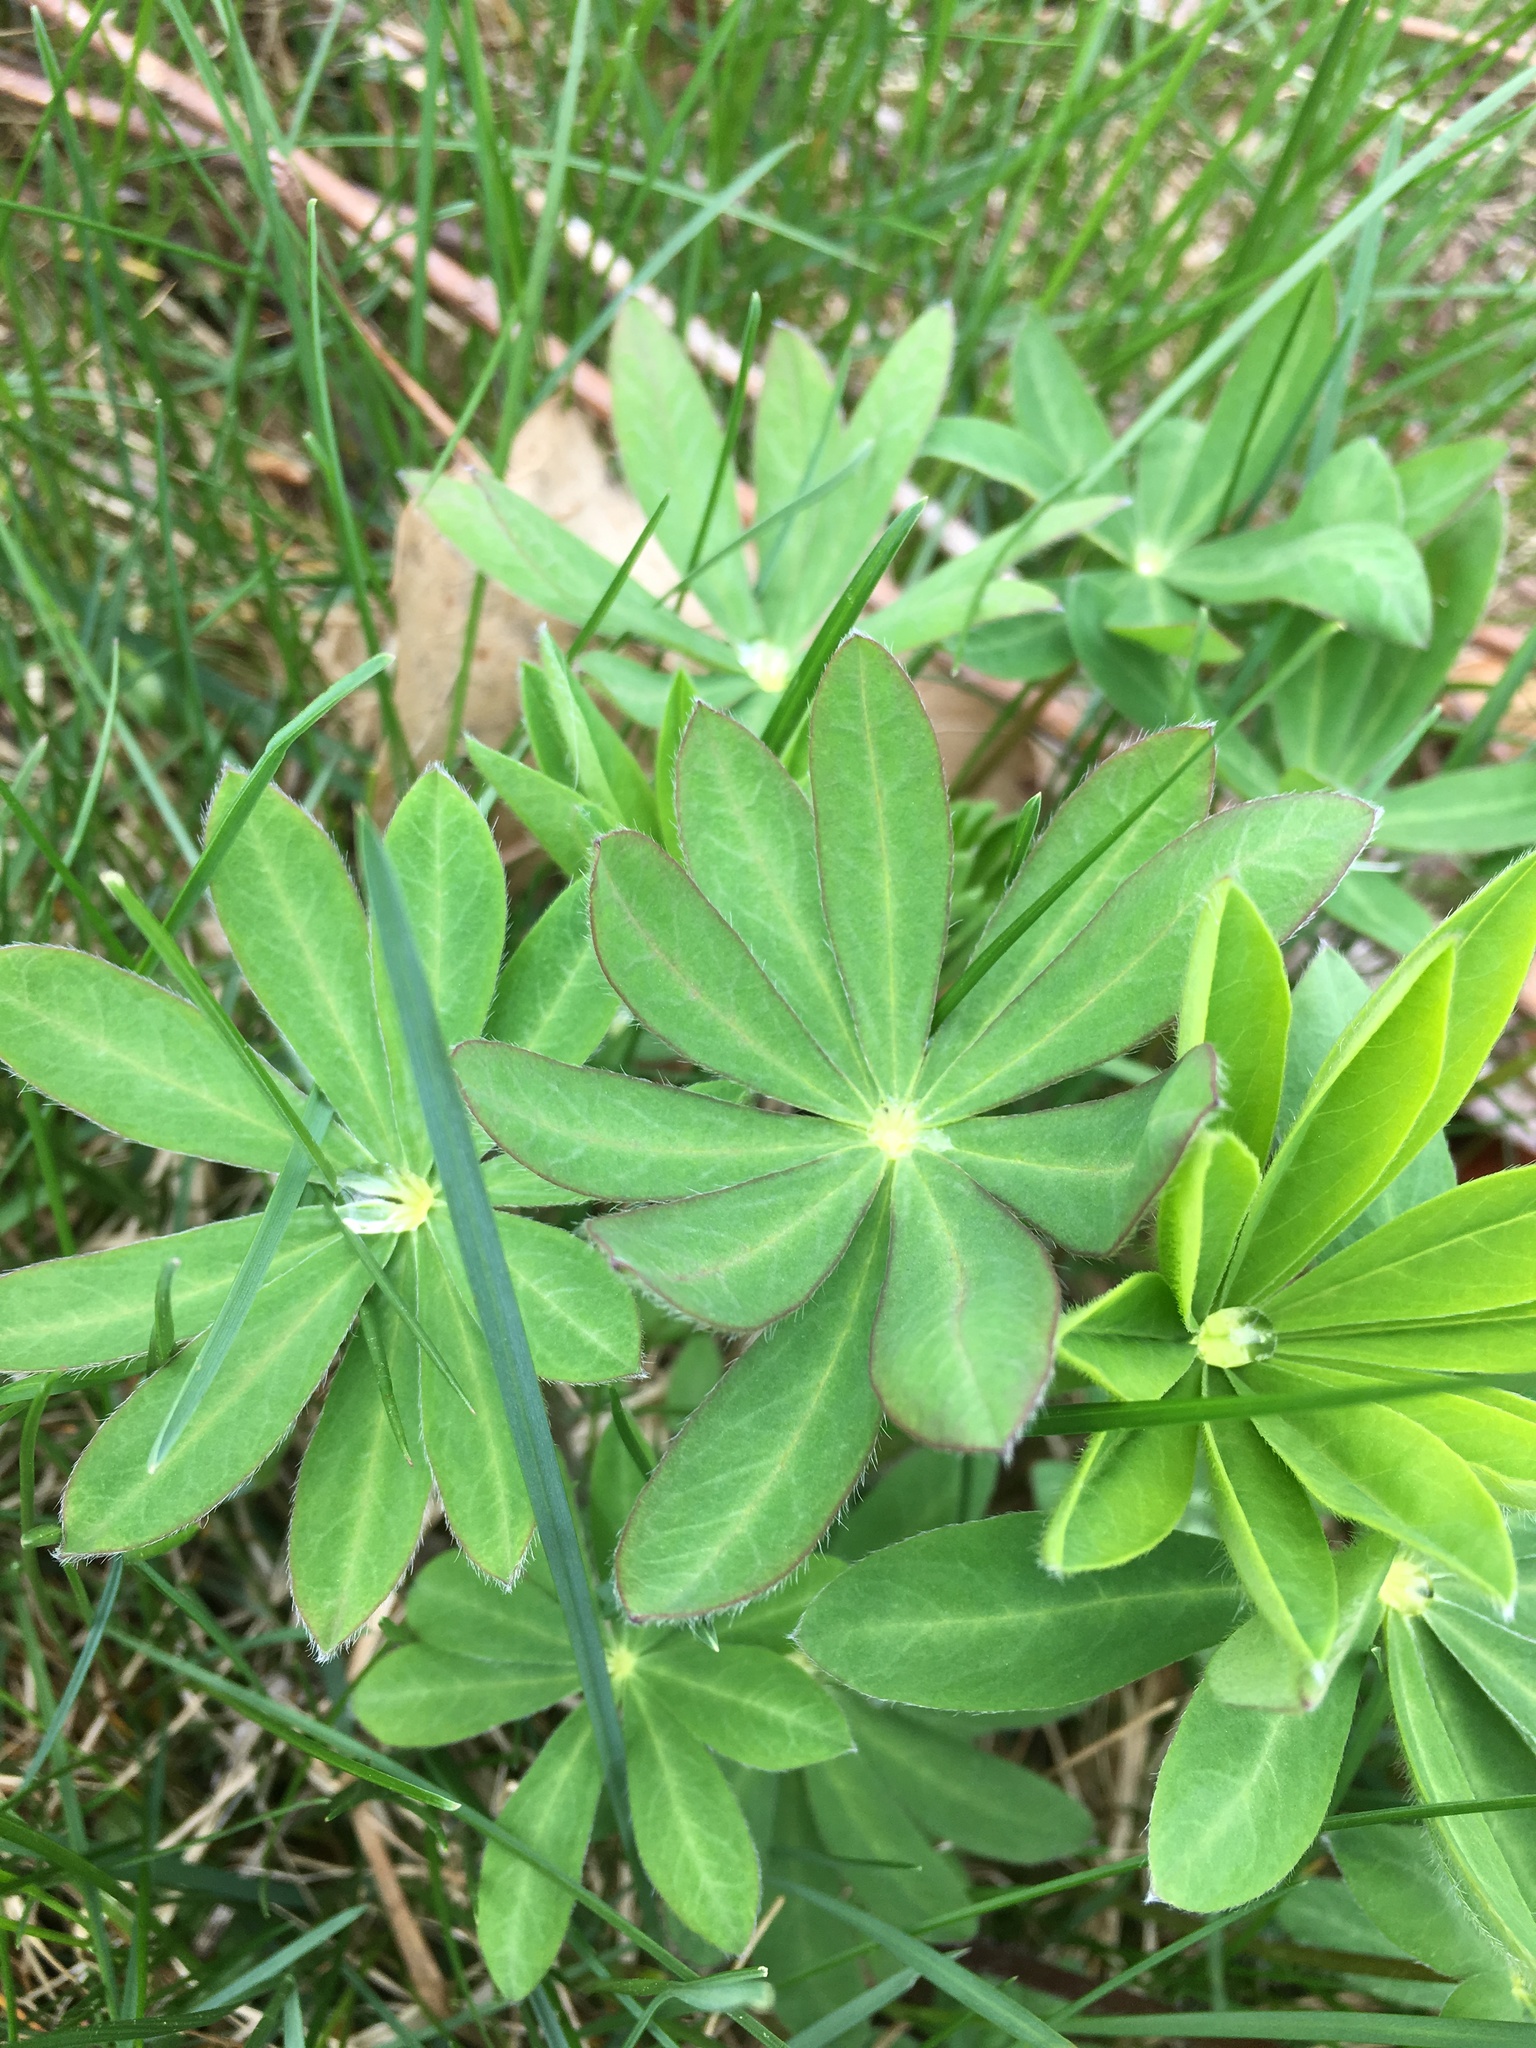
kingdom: Plantae
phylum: Tracheophyta
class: Magnoliopsida
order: Fabales
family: Fabaceae
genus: Lupinus
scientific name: Lupinus perennis
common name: Sundial lupine
